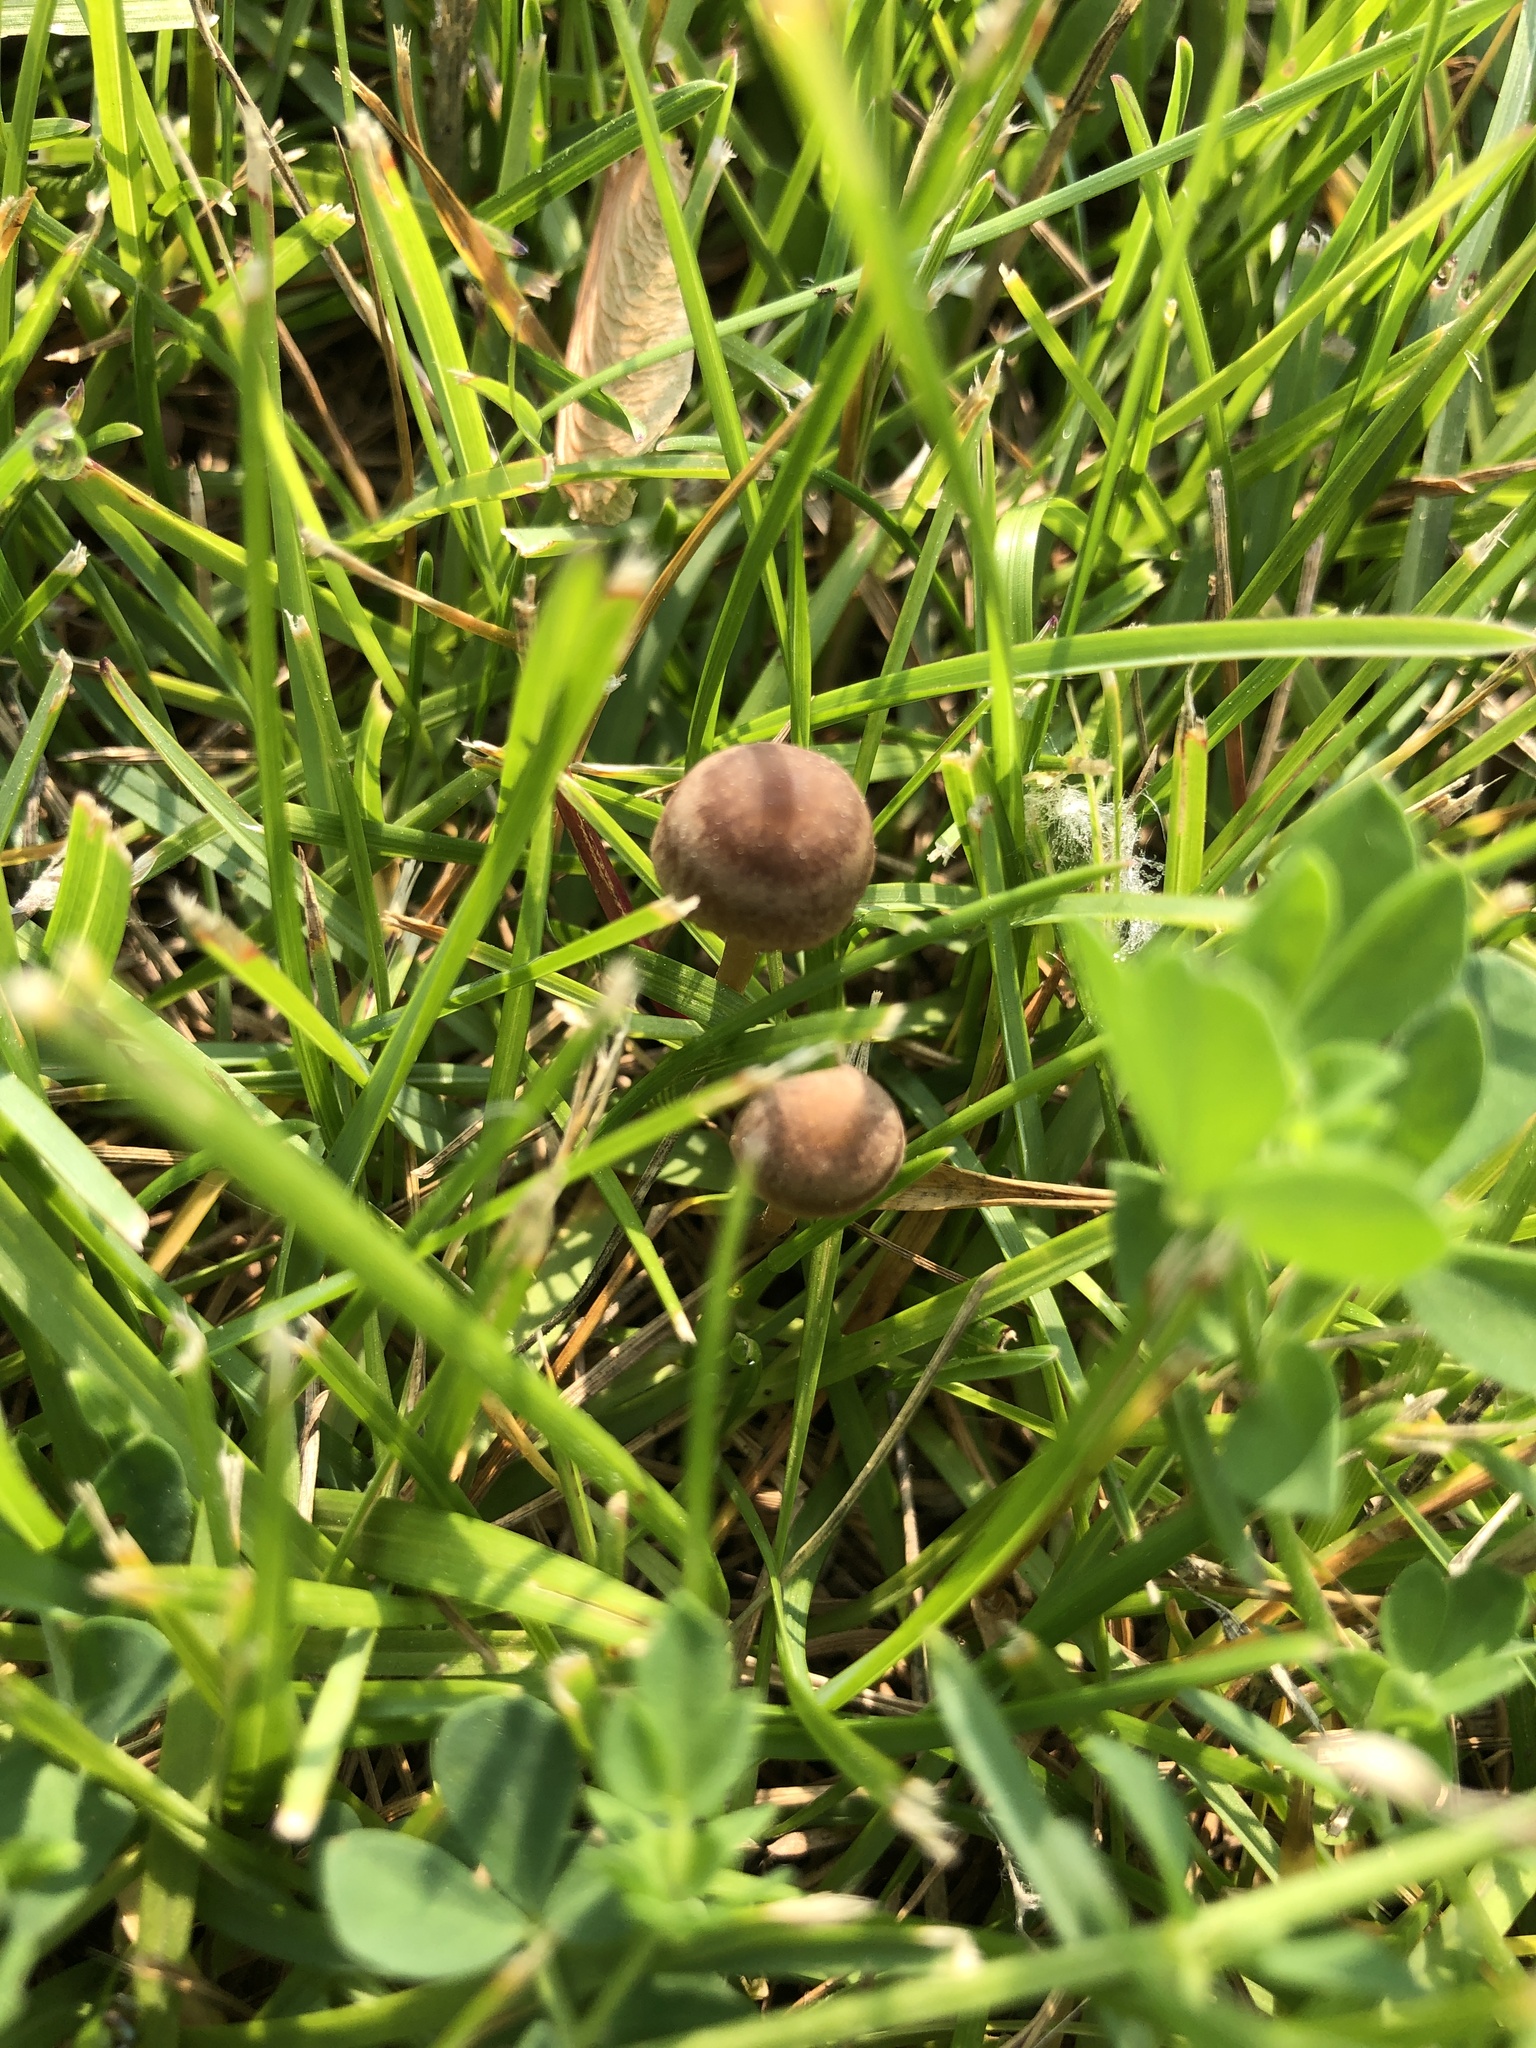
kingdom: Fungi
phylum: Basidiomycota
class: Agaricomycetes
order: Agaricales
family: Bolbitiaceae
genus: Panaeolina
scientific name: Panaeolina foenisecii
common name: Brown hay cap
